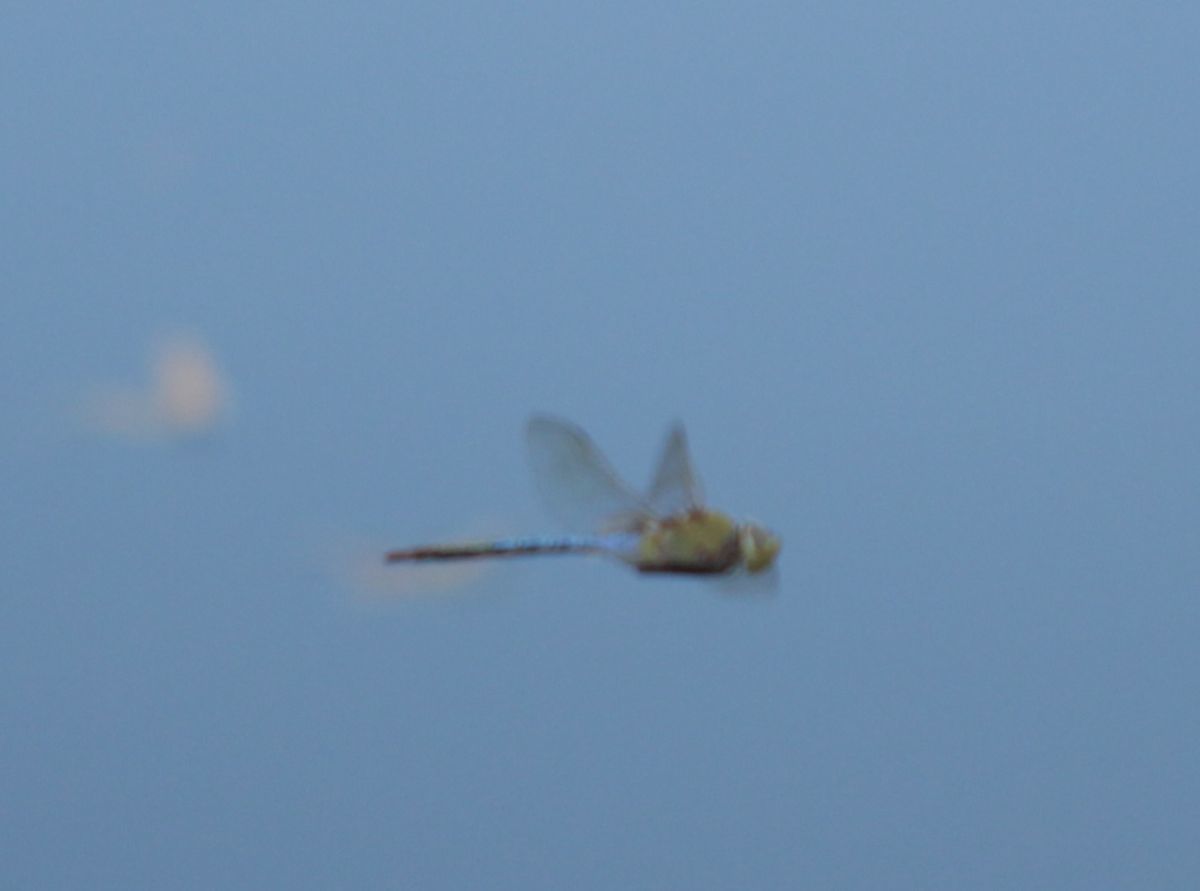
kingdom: Animalia
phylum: Arthropoda
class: Insecta
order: Odonata
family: Aeshnidae
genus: Anax
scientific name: Anax junius
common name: Common green darner
